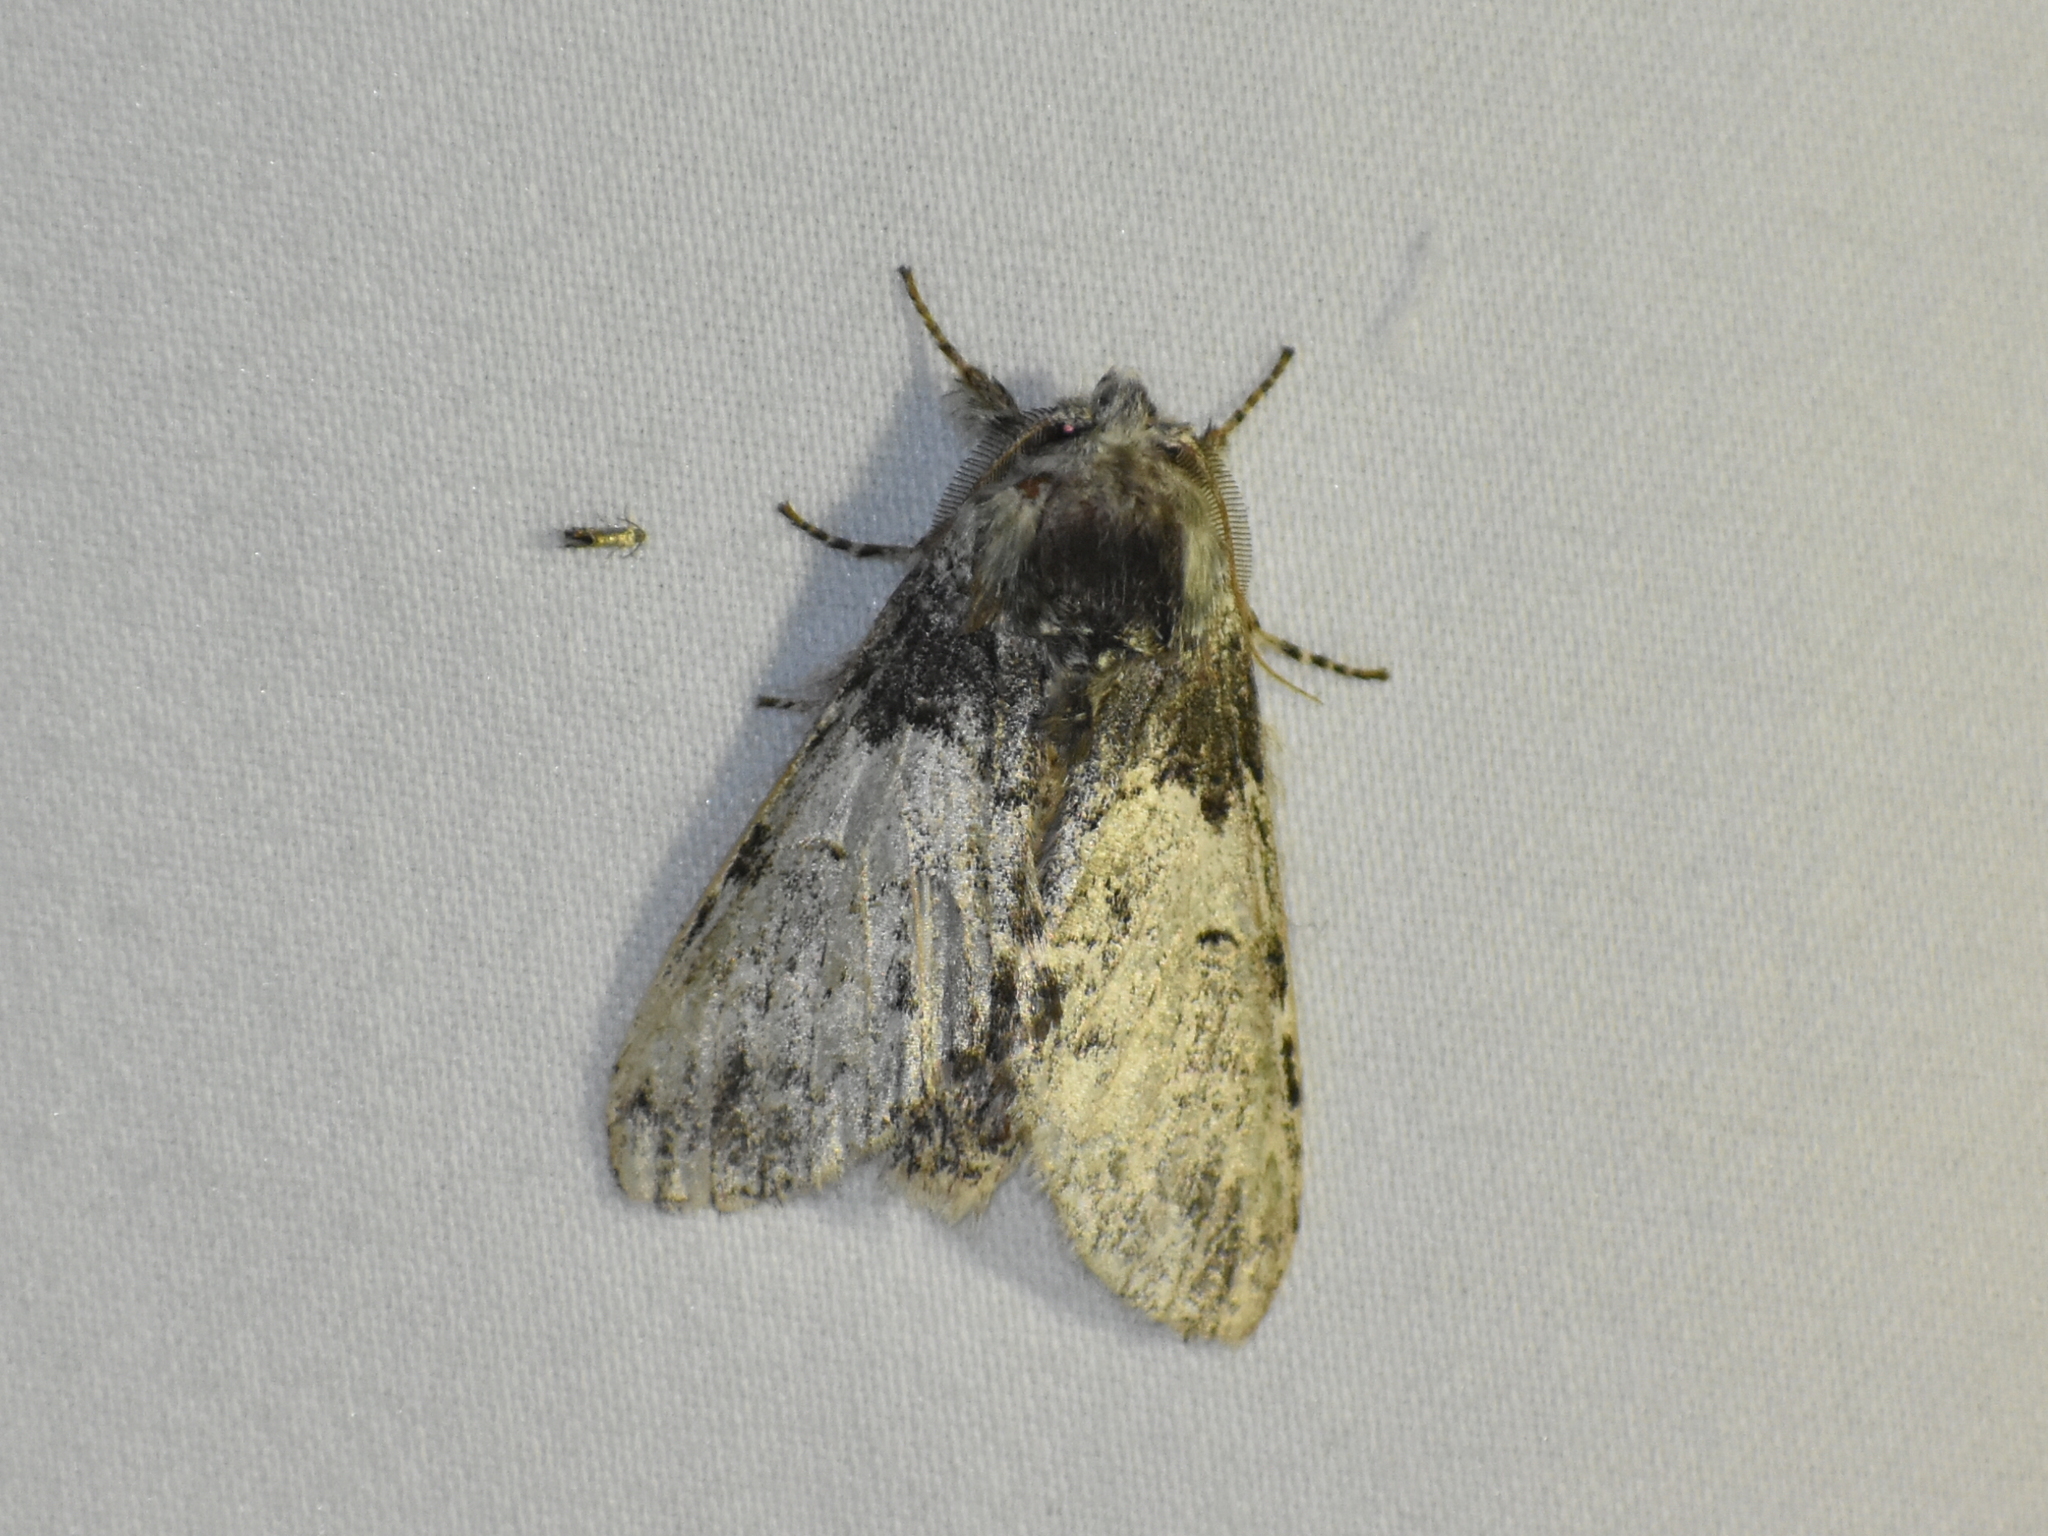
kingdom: Animalia
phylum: Arthropoda
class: Insecta
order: Lepidoptera
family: Notodontidae
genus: Macrurocampa
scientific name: Macrurocampa marthesia
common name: Mottled prominent
